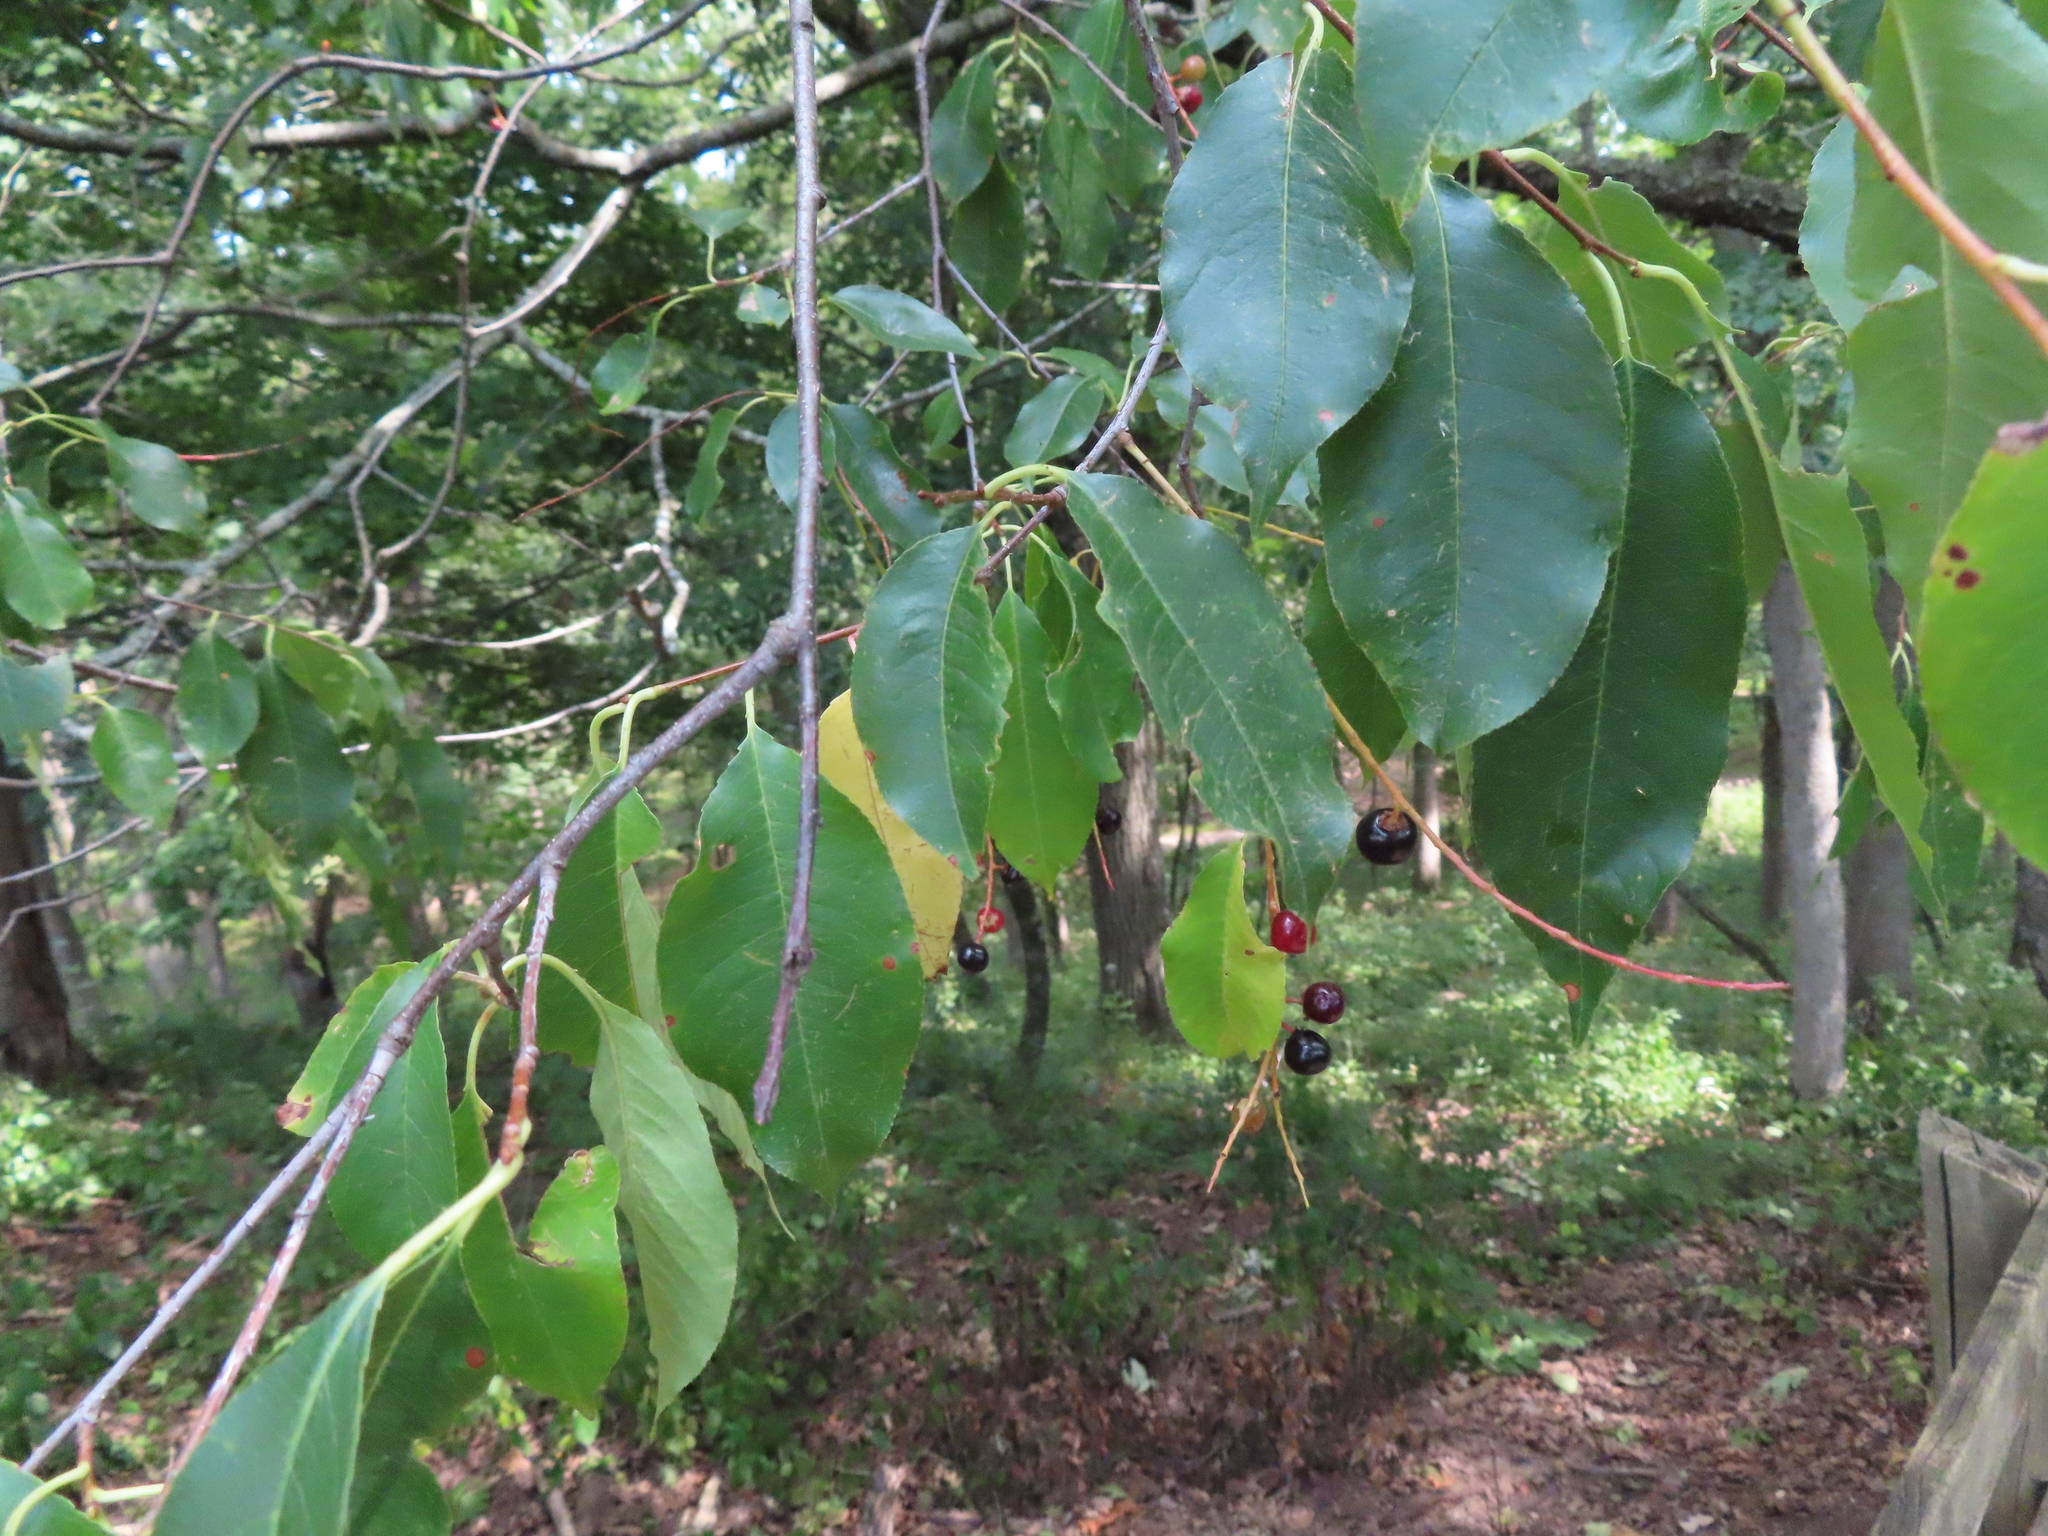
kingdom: Plantae
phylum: Tracheophyta
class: Magnoliopsida
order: Rosales
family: Rosaceae
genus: Prunus
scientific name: Prunus serotina
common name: Black cherry
